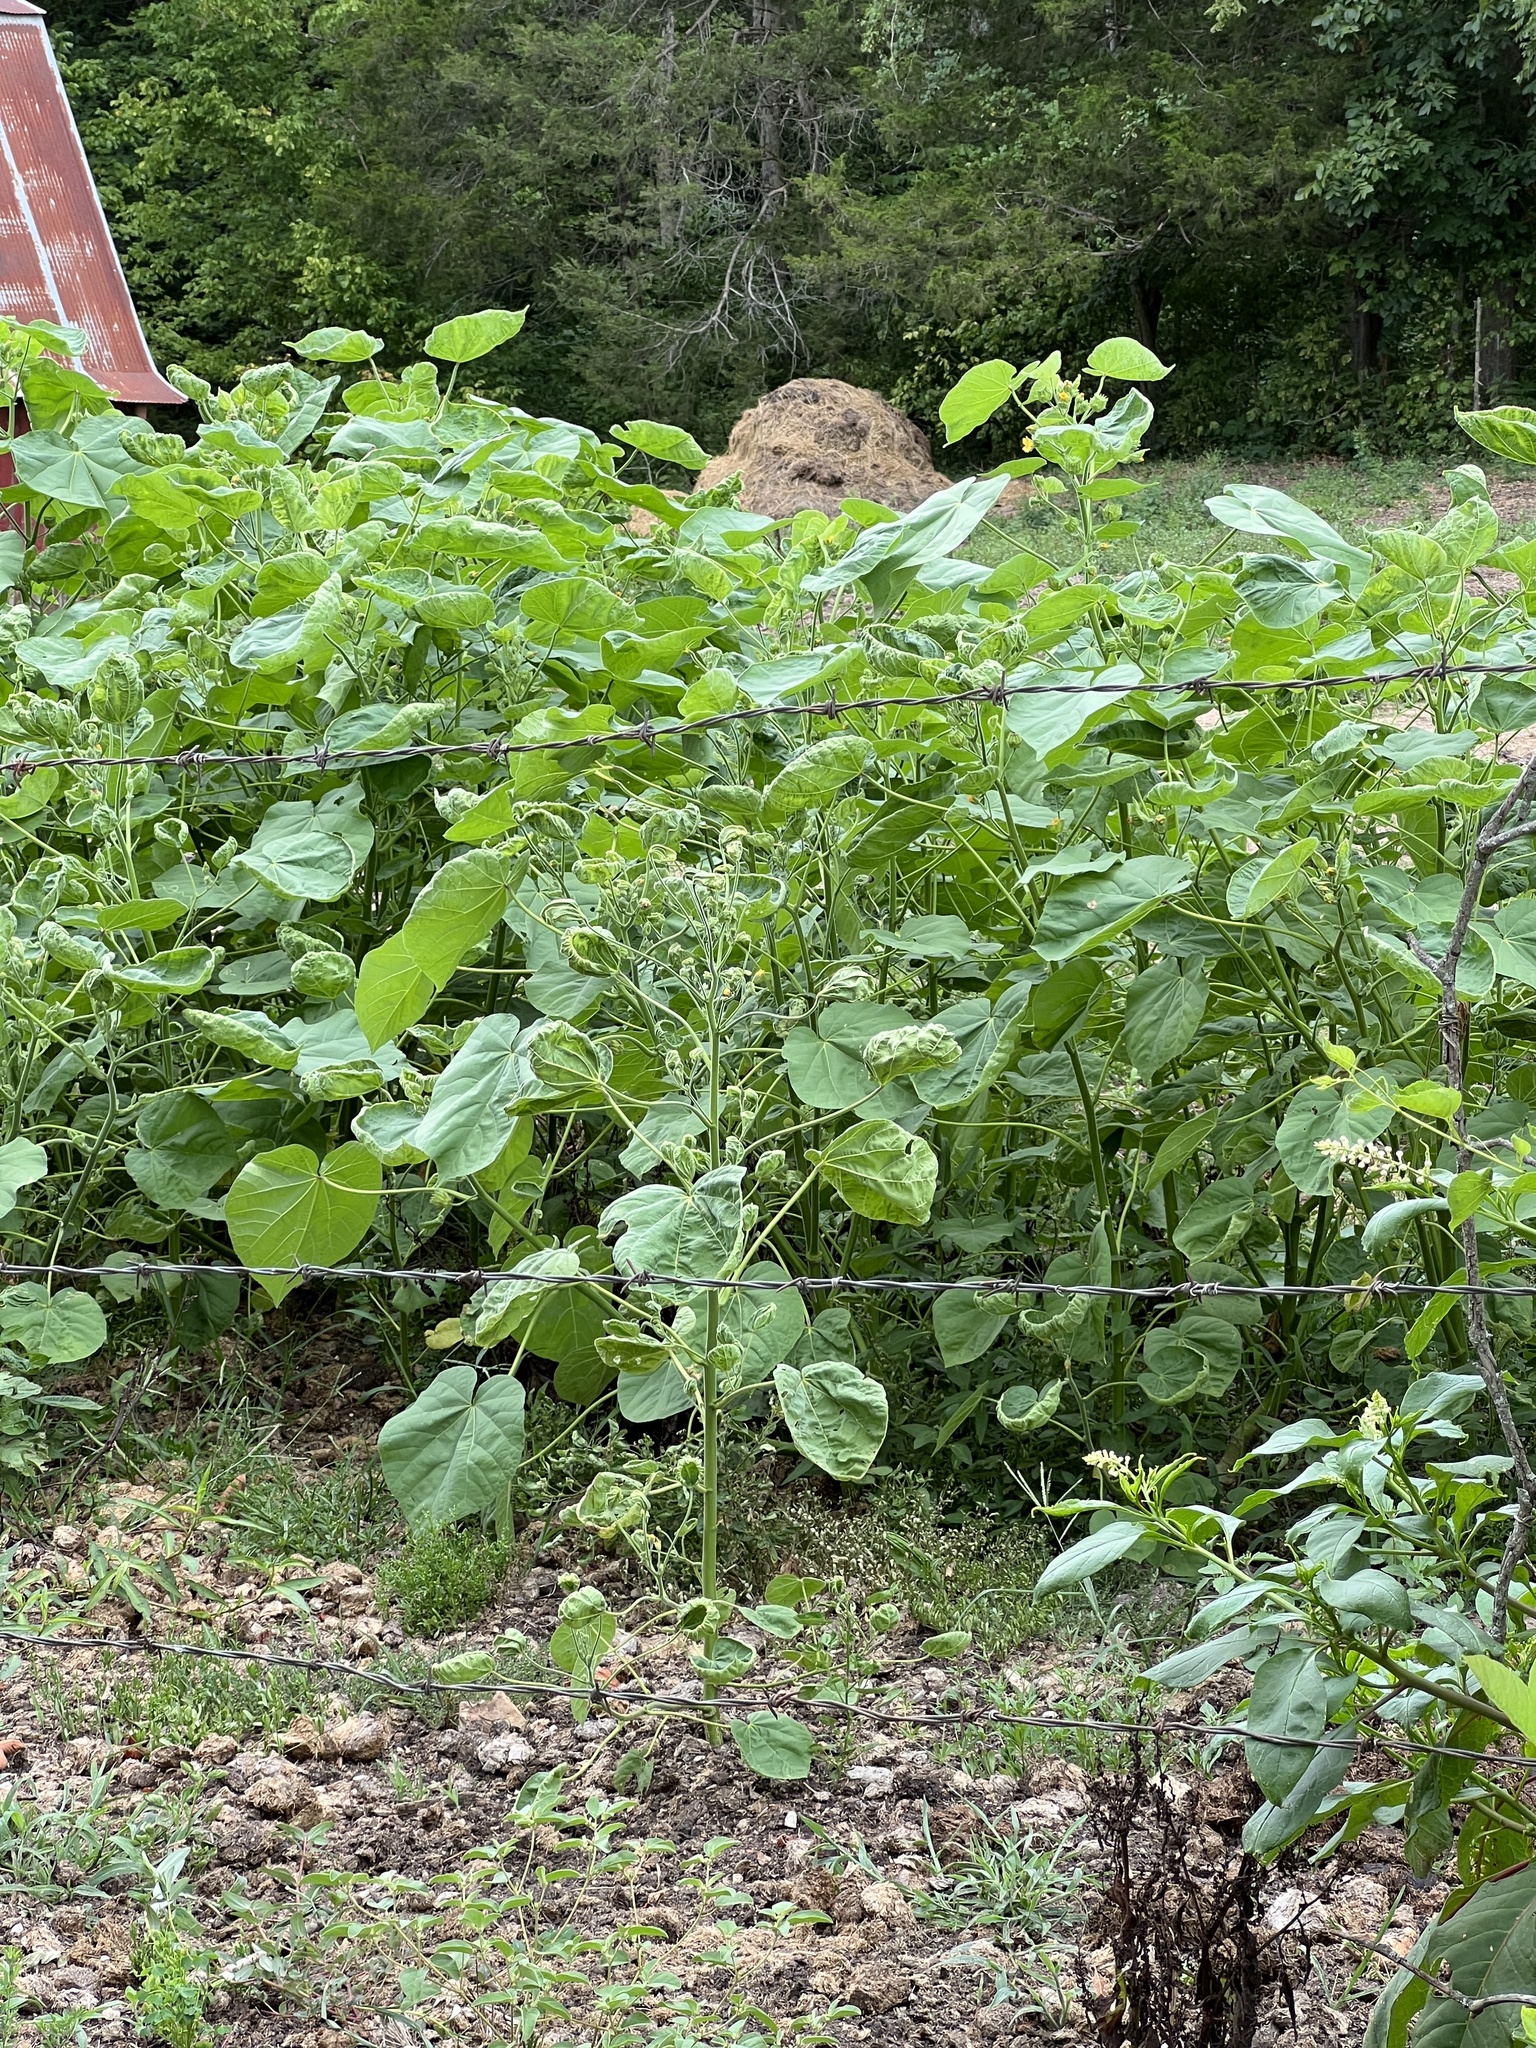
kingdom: Plantae
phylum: Tracheophyta
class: Magnoliopsida
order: Malvales
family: Malvaceae
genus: Abutilon
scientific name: Abutilon theophrasti
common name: Velvetleaf
